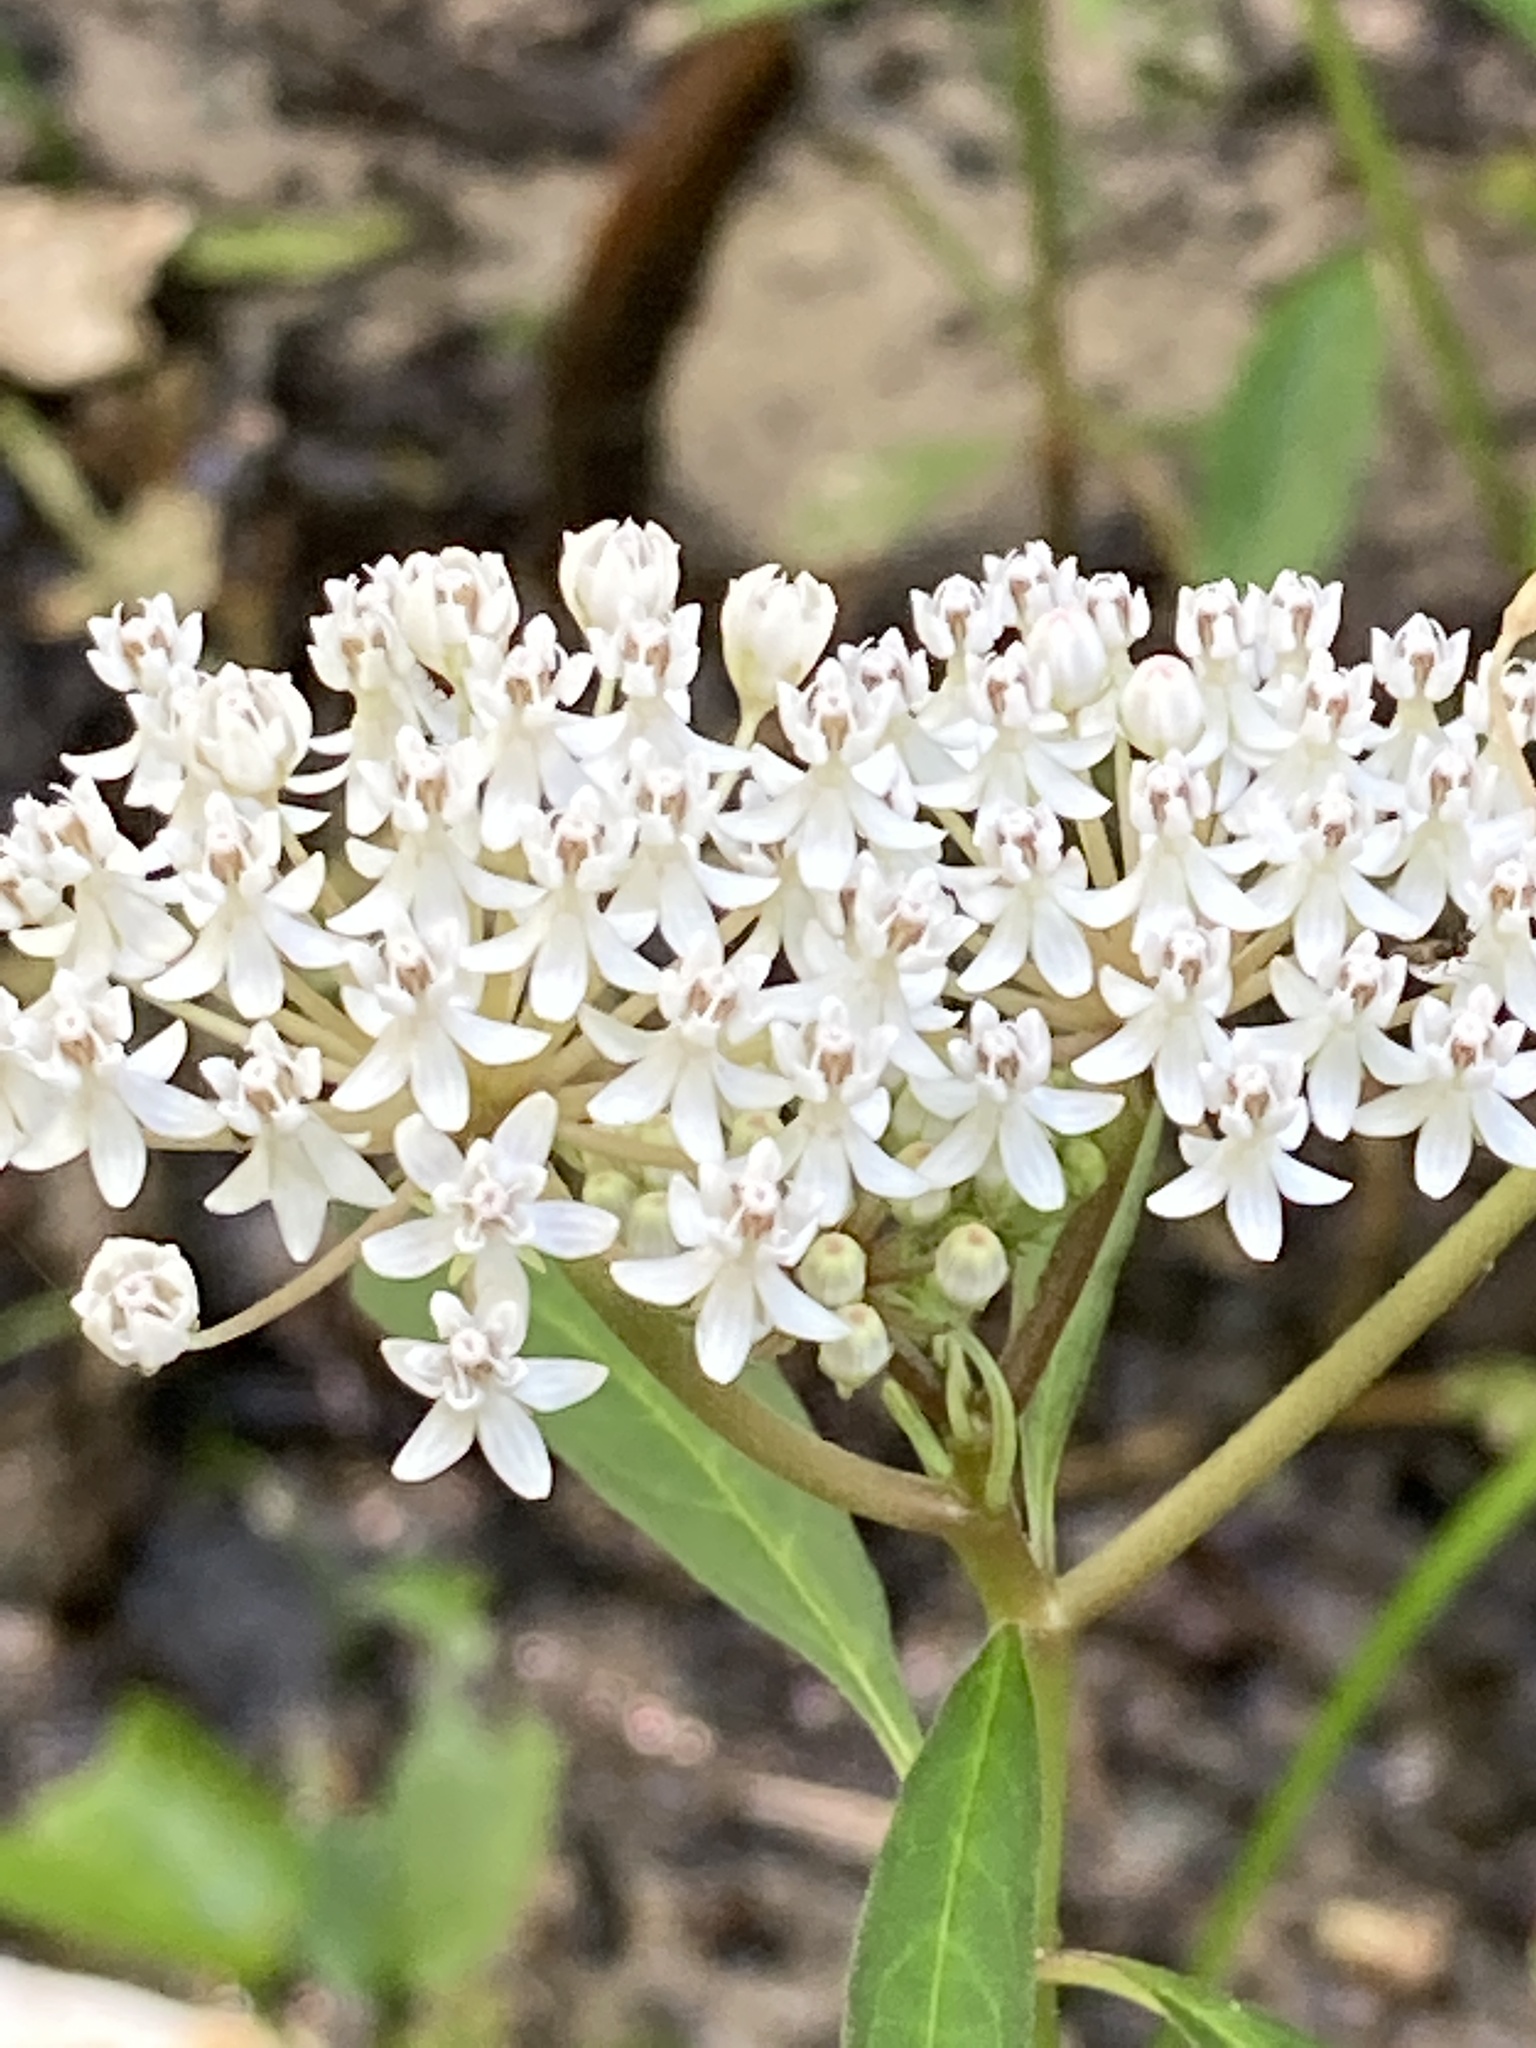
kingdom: Plantae
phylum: Tracheophyta
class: Magnoliopsida
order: Gentianales
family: Apocynaceae
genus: Asclepias
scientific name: Asclepias perennis
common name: Smooth-seed milkweed
